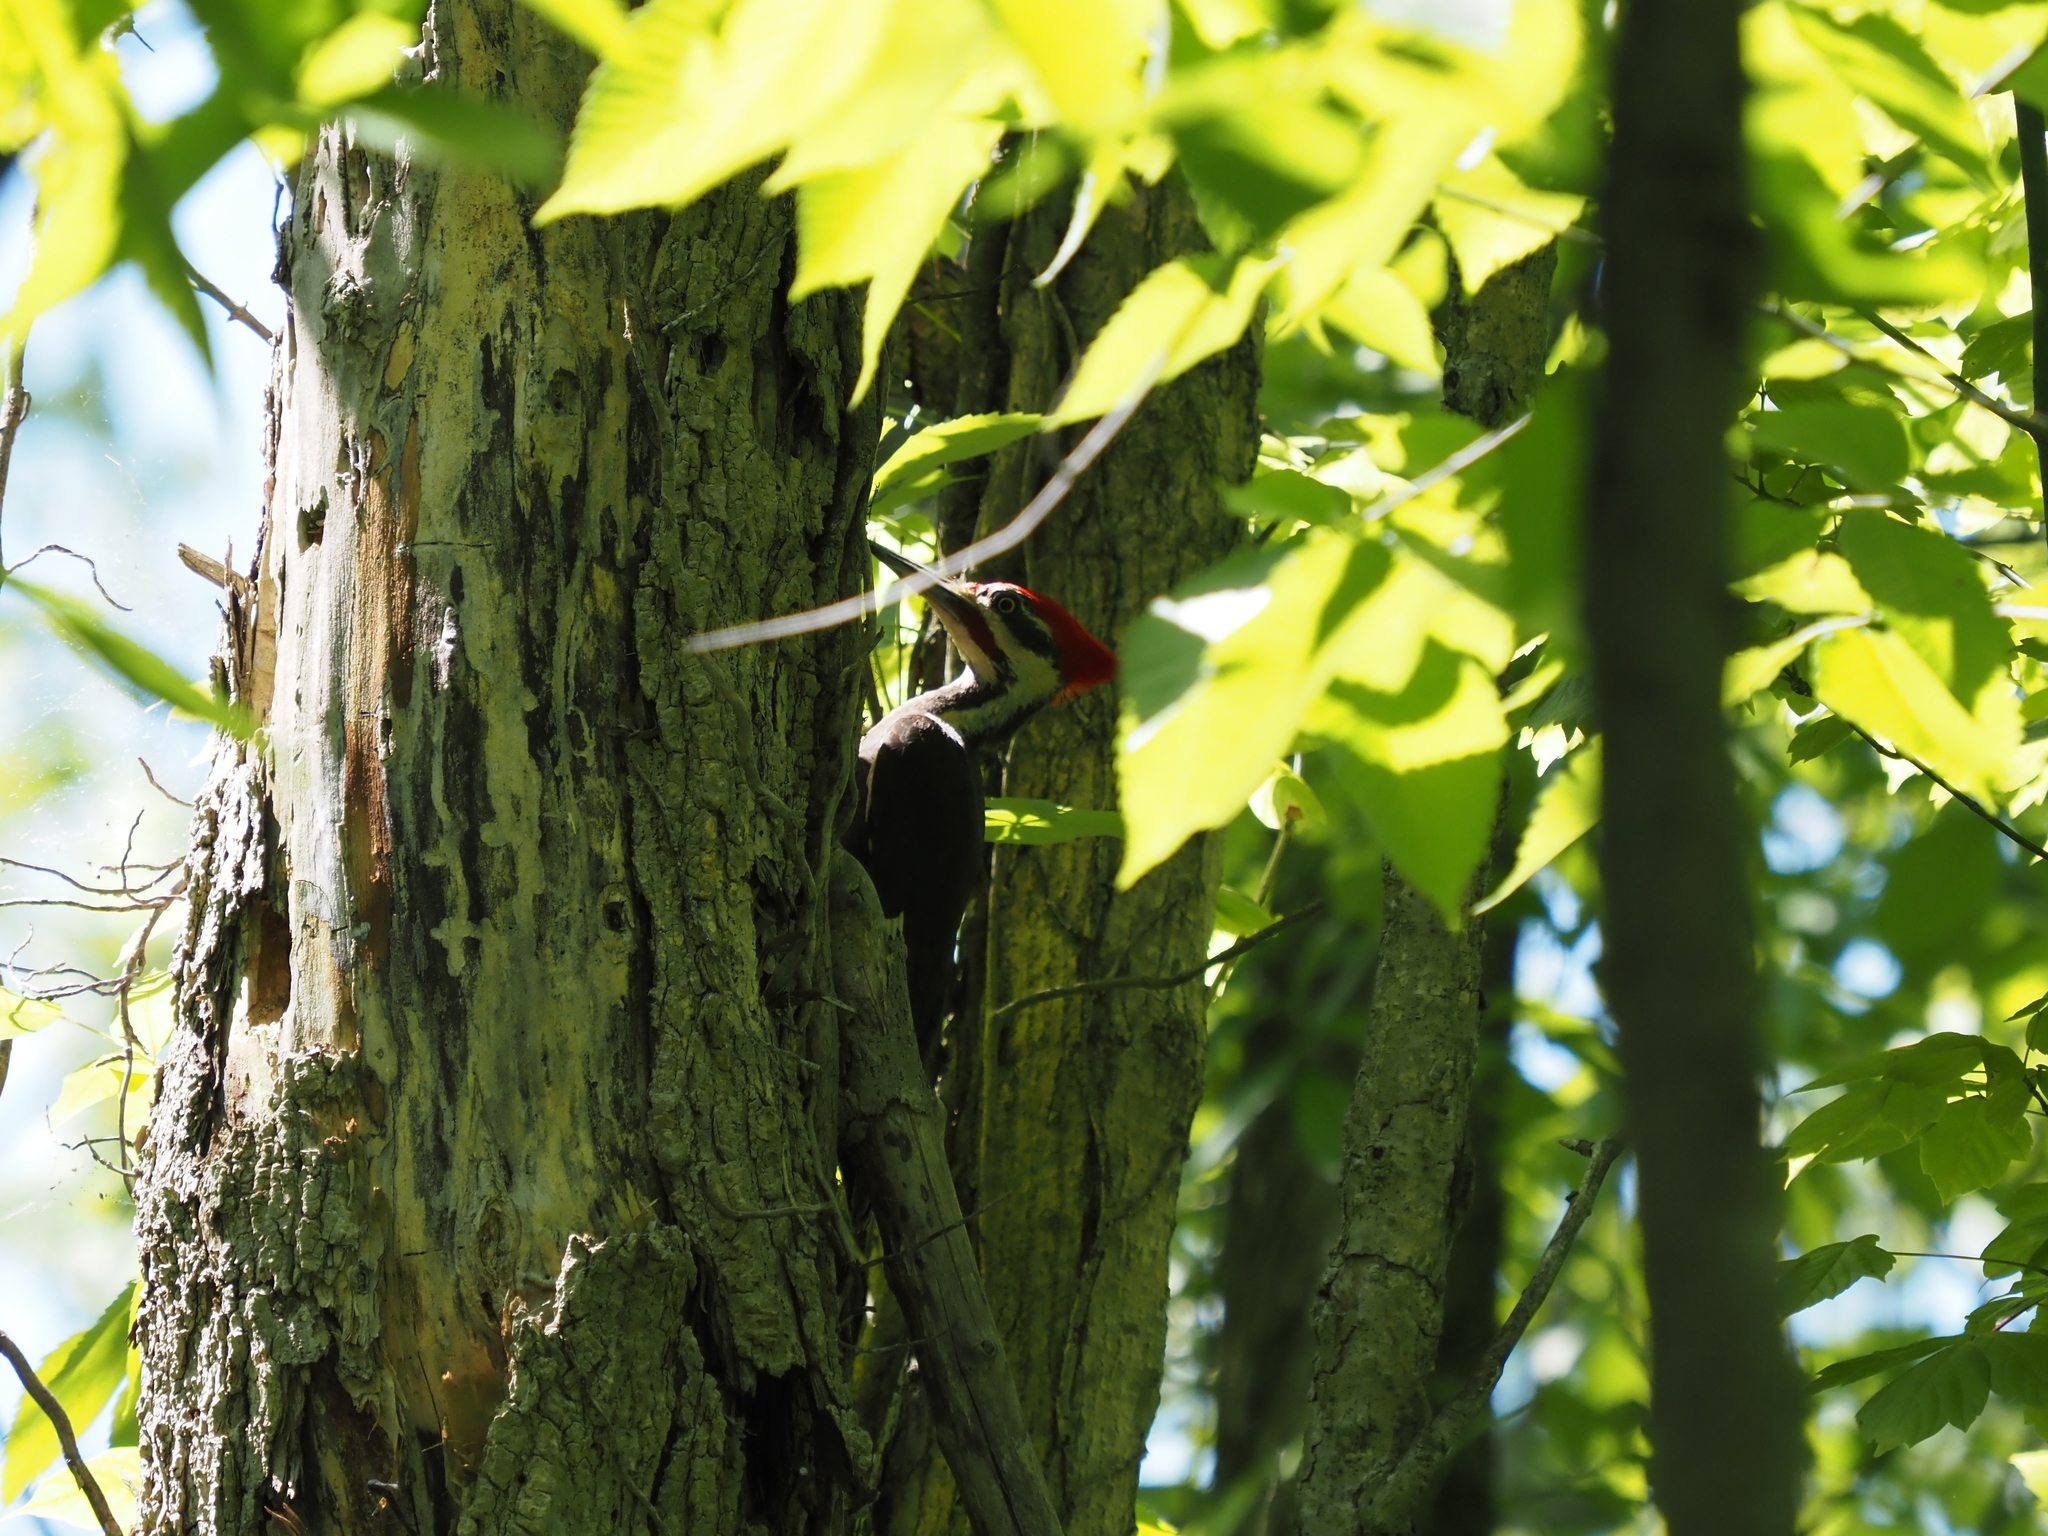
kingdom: Animalia
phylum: Chordata
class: Aves
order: Piciformes
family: Picidae
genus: Dryocopus
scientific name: Dryocopus pileatus
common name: Pileated woodpecker
